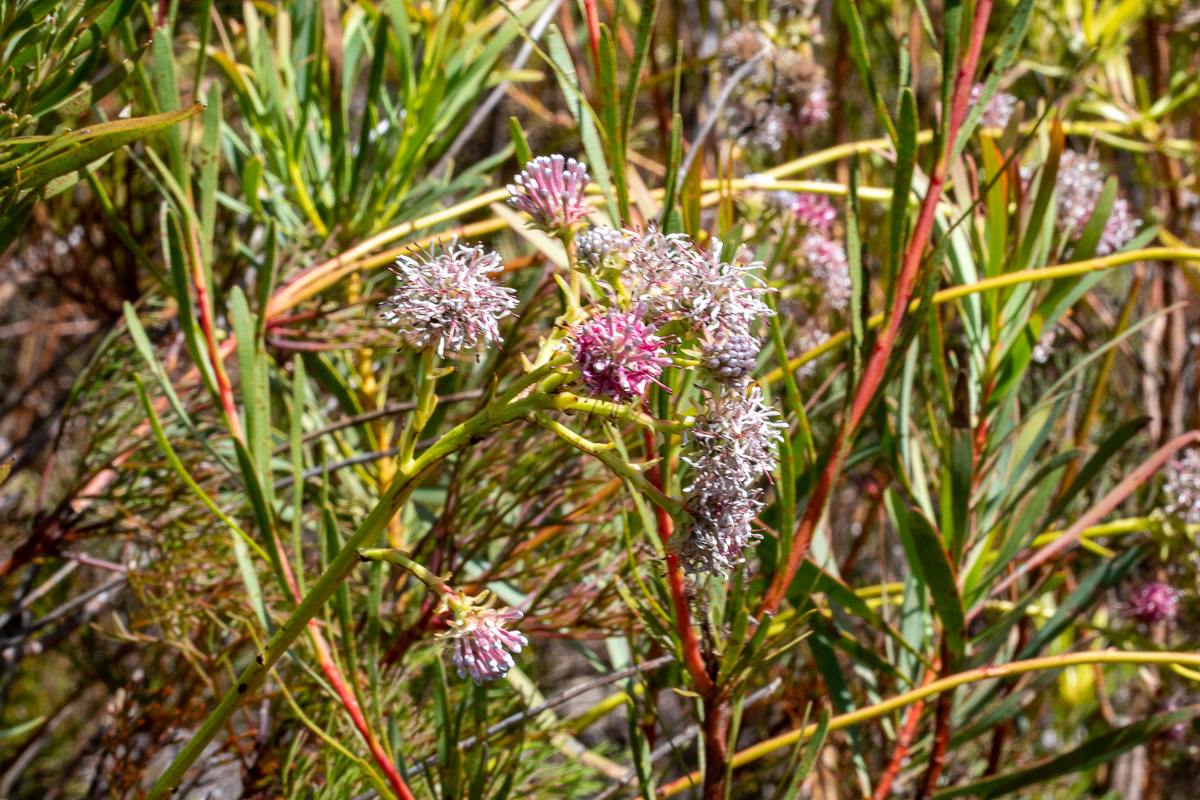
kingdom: Plantae
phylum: Tracheophyta
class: Magnoliopsida
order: Proteales
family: Proteaceae
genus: Serruria
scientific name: Serruria elongata
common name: Long-stalk spiderhead
